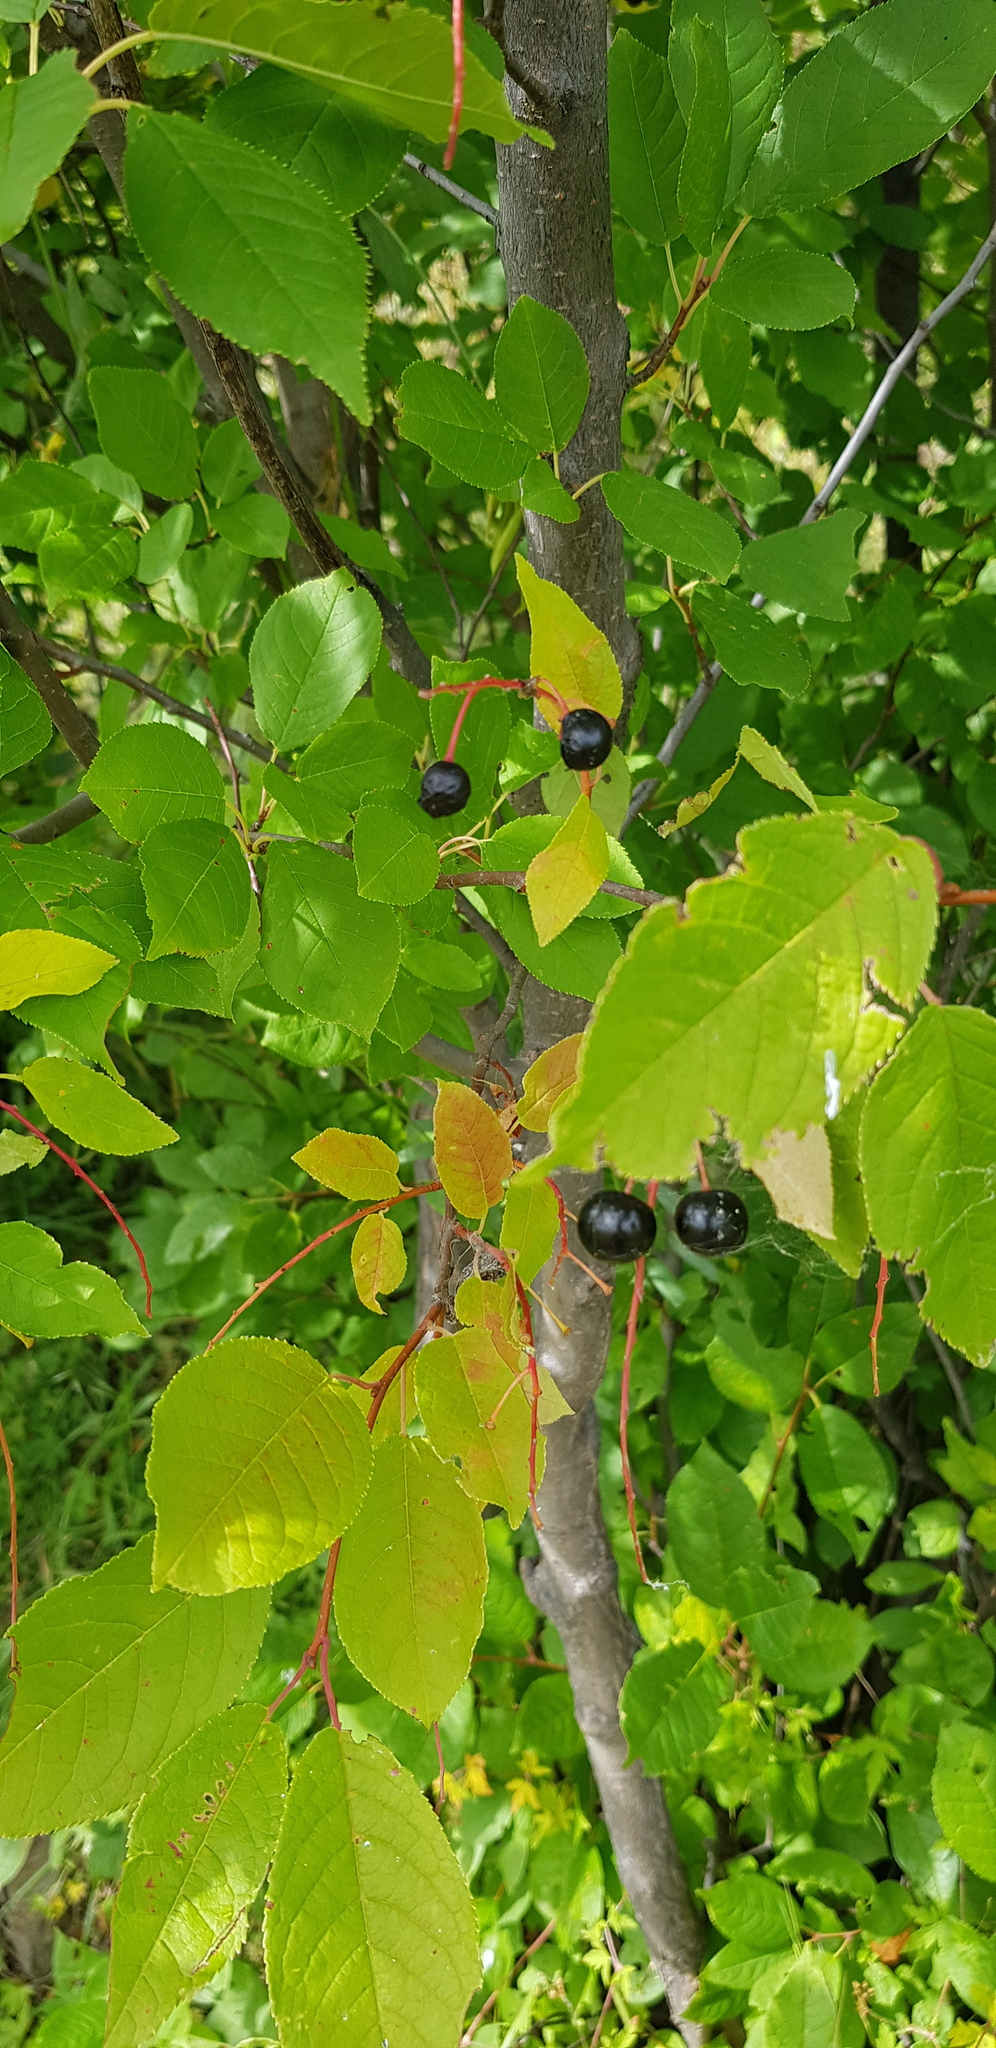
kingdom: Plantae
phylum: Tracheophyta
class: Magnoliopsida
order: Rosales
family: Rosaceae
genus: Prunus
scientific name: Prunus padus
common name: Bird cherry
